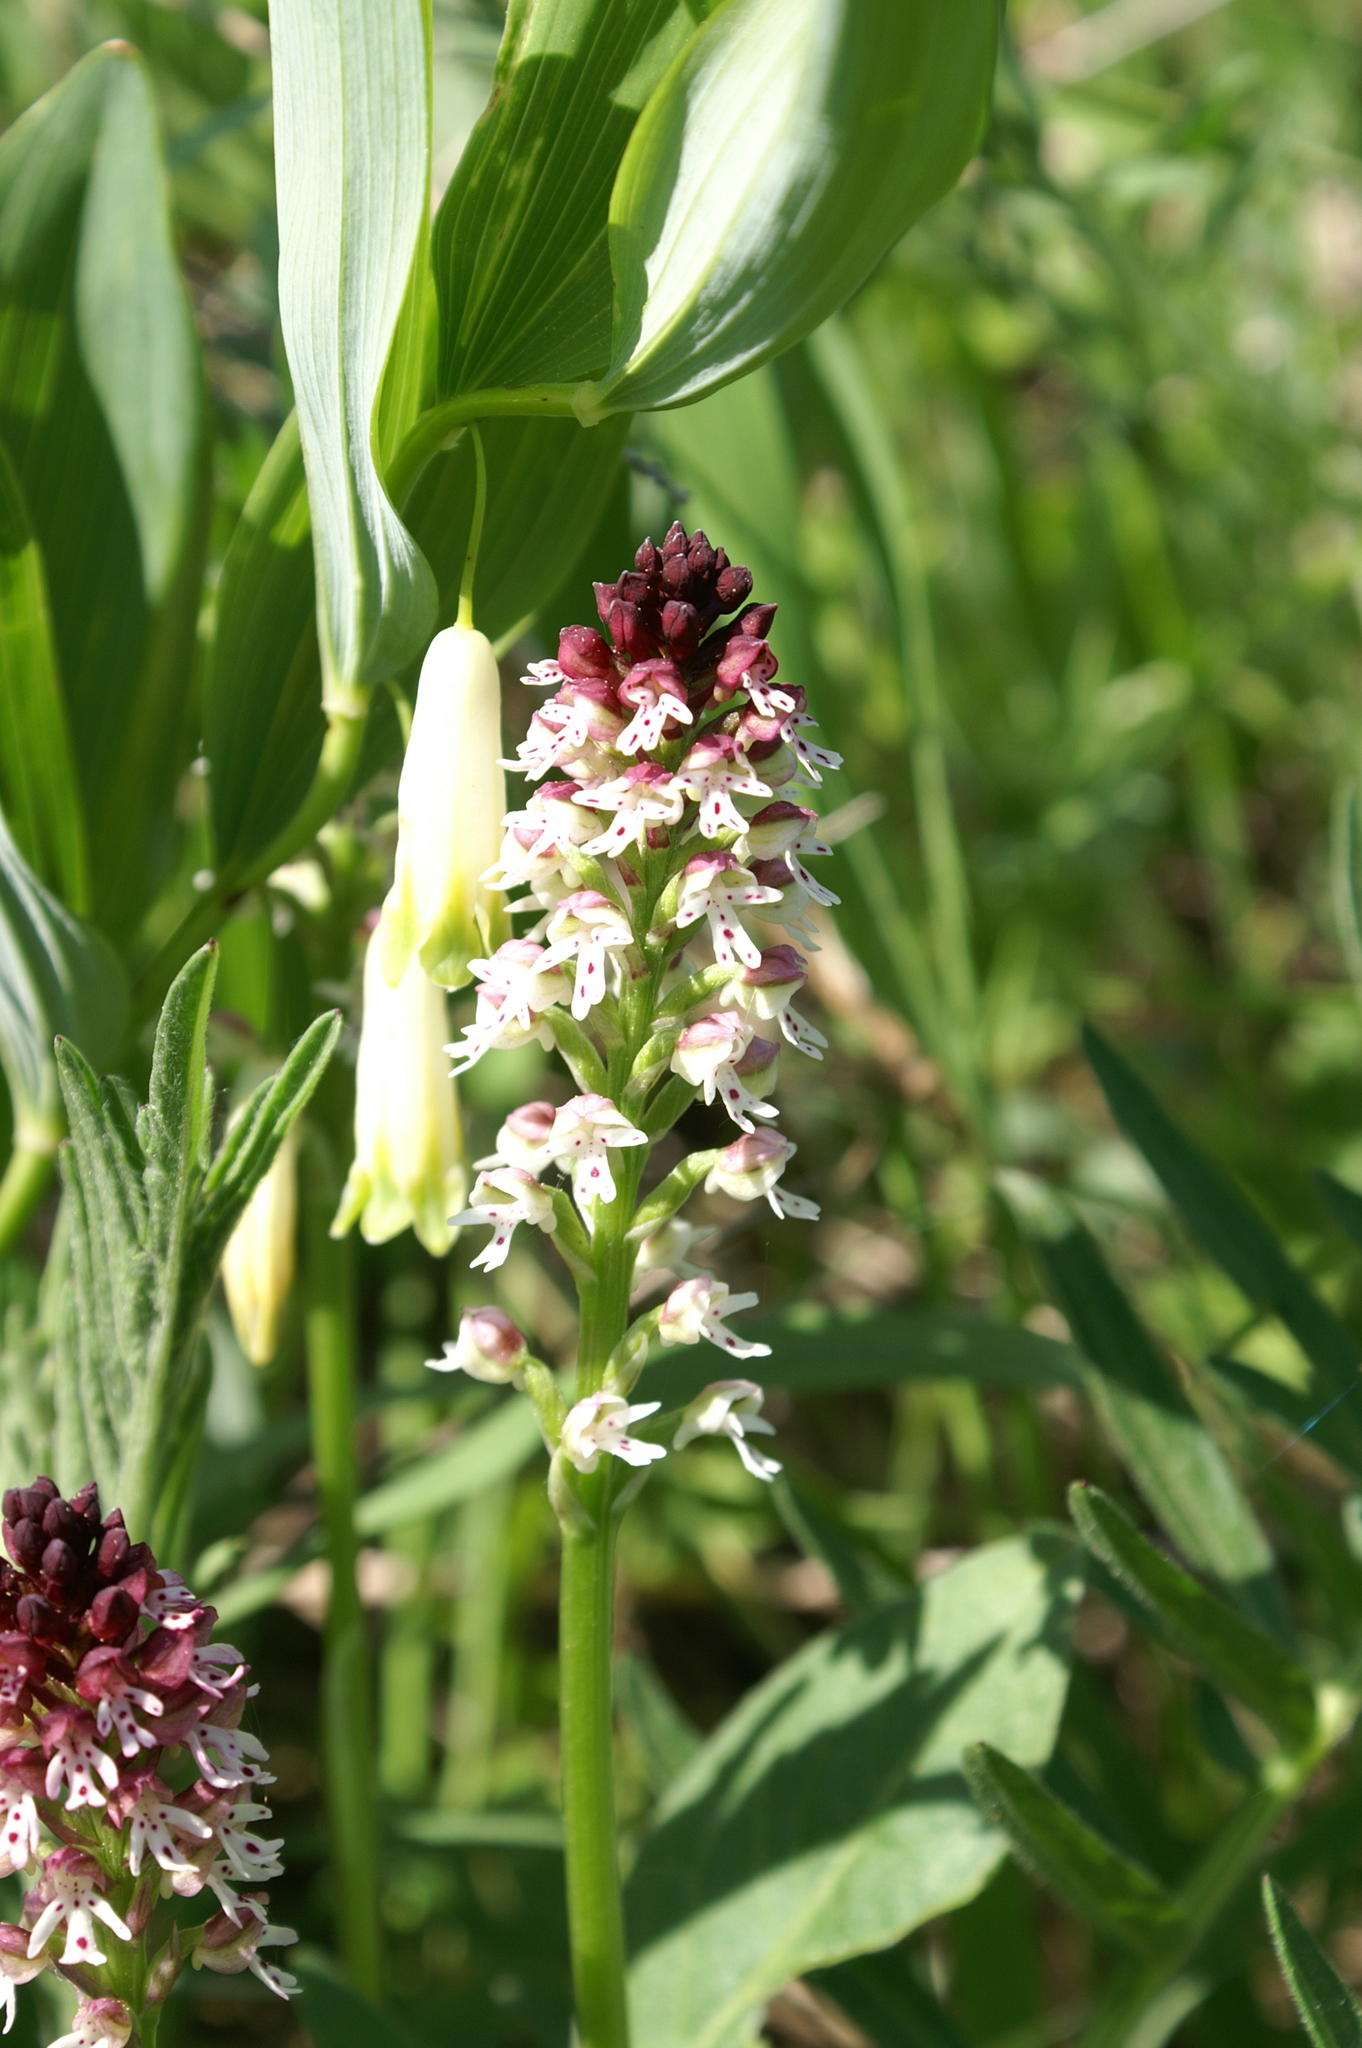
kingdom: Plantae
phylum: Tracheophyta
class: Liliopsida
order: Asparagales
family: Orchidaceae
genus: Neotinea
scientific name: Neotinea ustulata
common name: Burnt orchid
